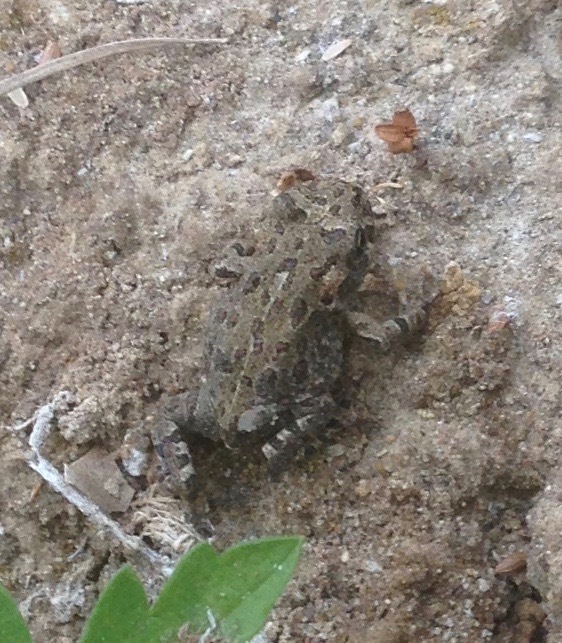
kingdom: Animalia
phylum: Chordata
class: Amphibia
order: Anura
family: Bufonidae
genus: Anaxyrus
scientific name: Anaxyrus boreas
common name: Western toad
